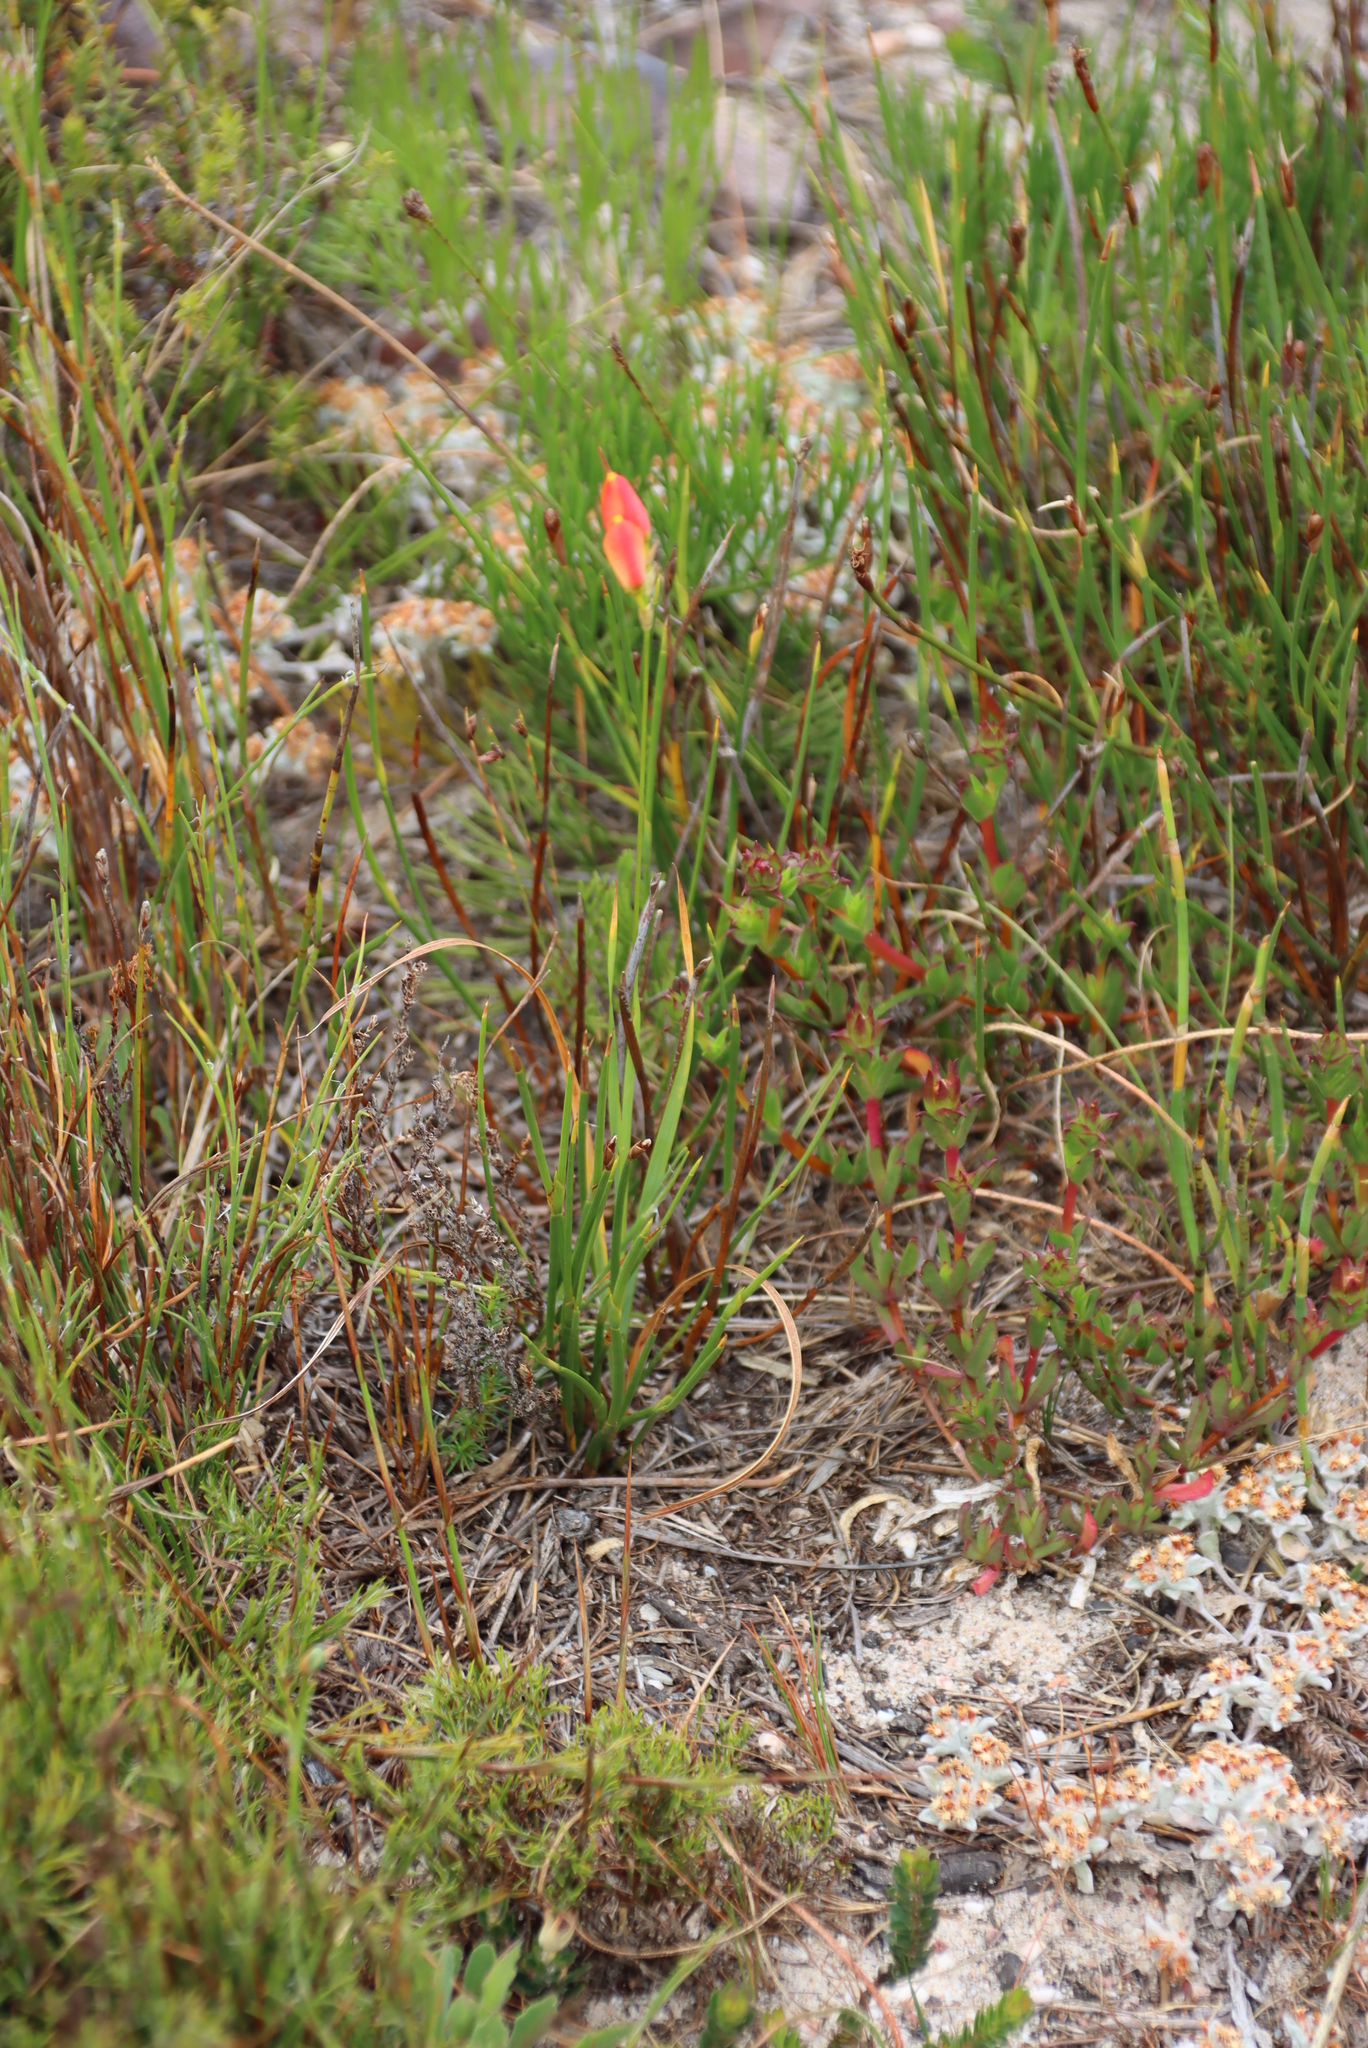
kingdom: Plantae
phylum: Tracheophyta
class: Liliopsida
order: Asparagales
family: Iridaceae
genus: Ixia
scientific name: Ixia dubia
